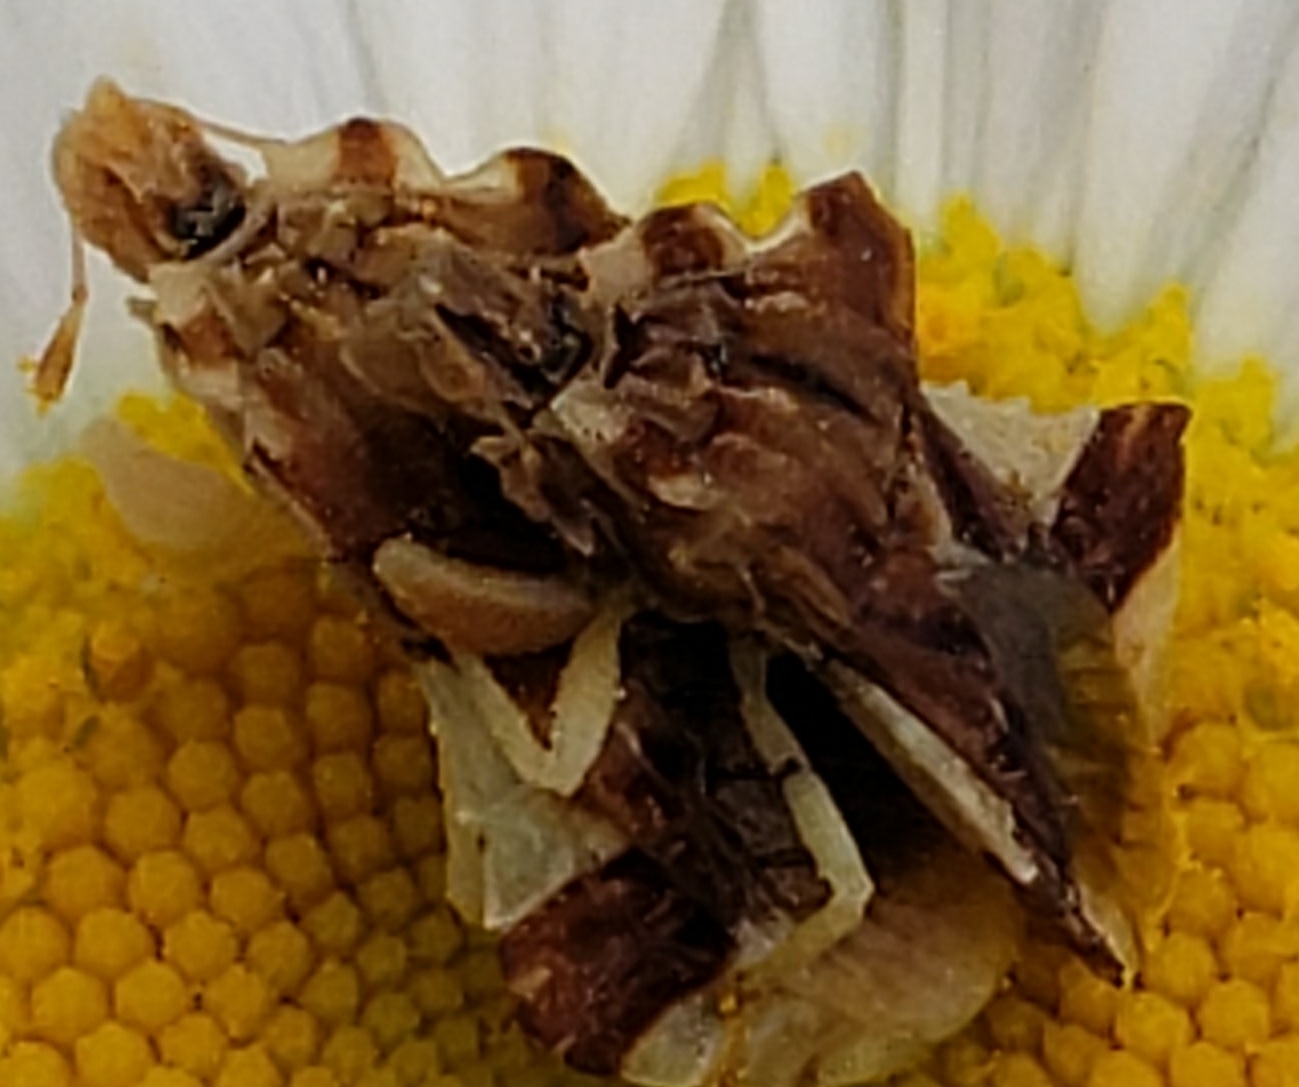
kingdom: Animalia
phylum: Arthropoda
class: Insecta
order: Hemiptera
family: Reduviidae
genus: Phymata
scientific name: Phymata fasciata
